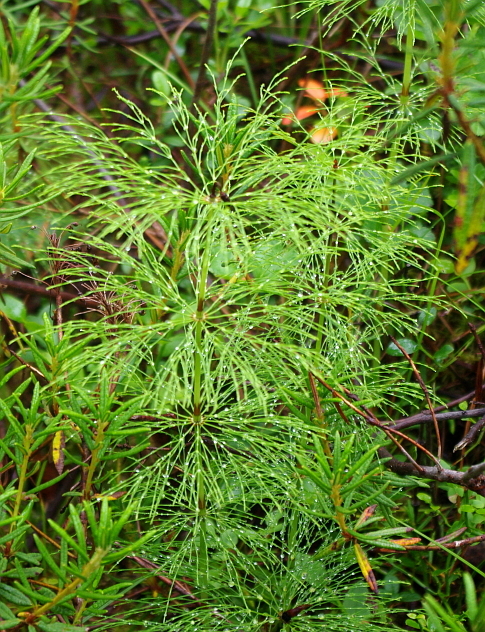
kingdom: Plantae
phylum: Tracheophyta
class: Polypodiopsida
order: Equisetales
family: Equisetaceae
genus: Equisetum
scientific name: Equisetum sylvaticum
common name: Wood horsetail
